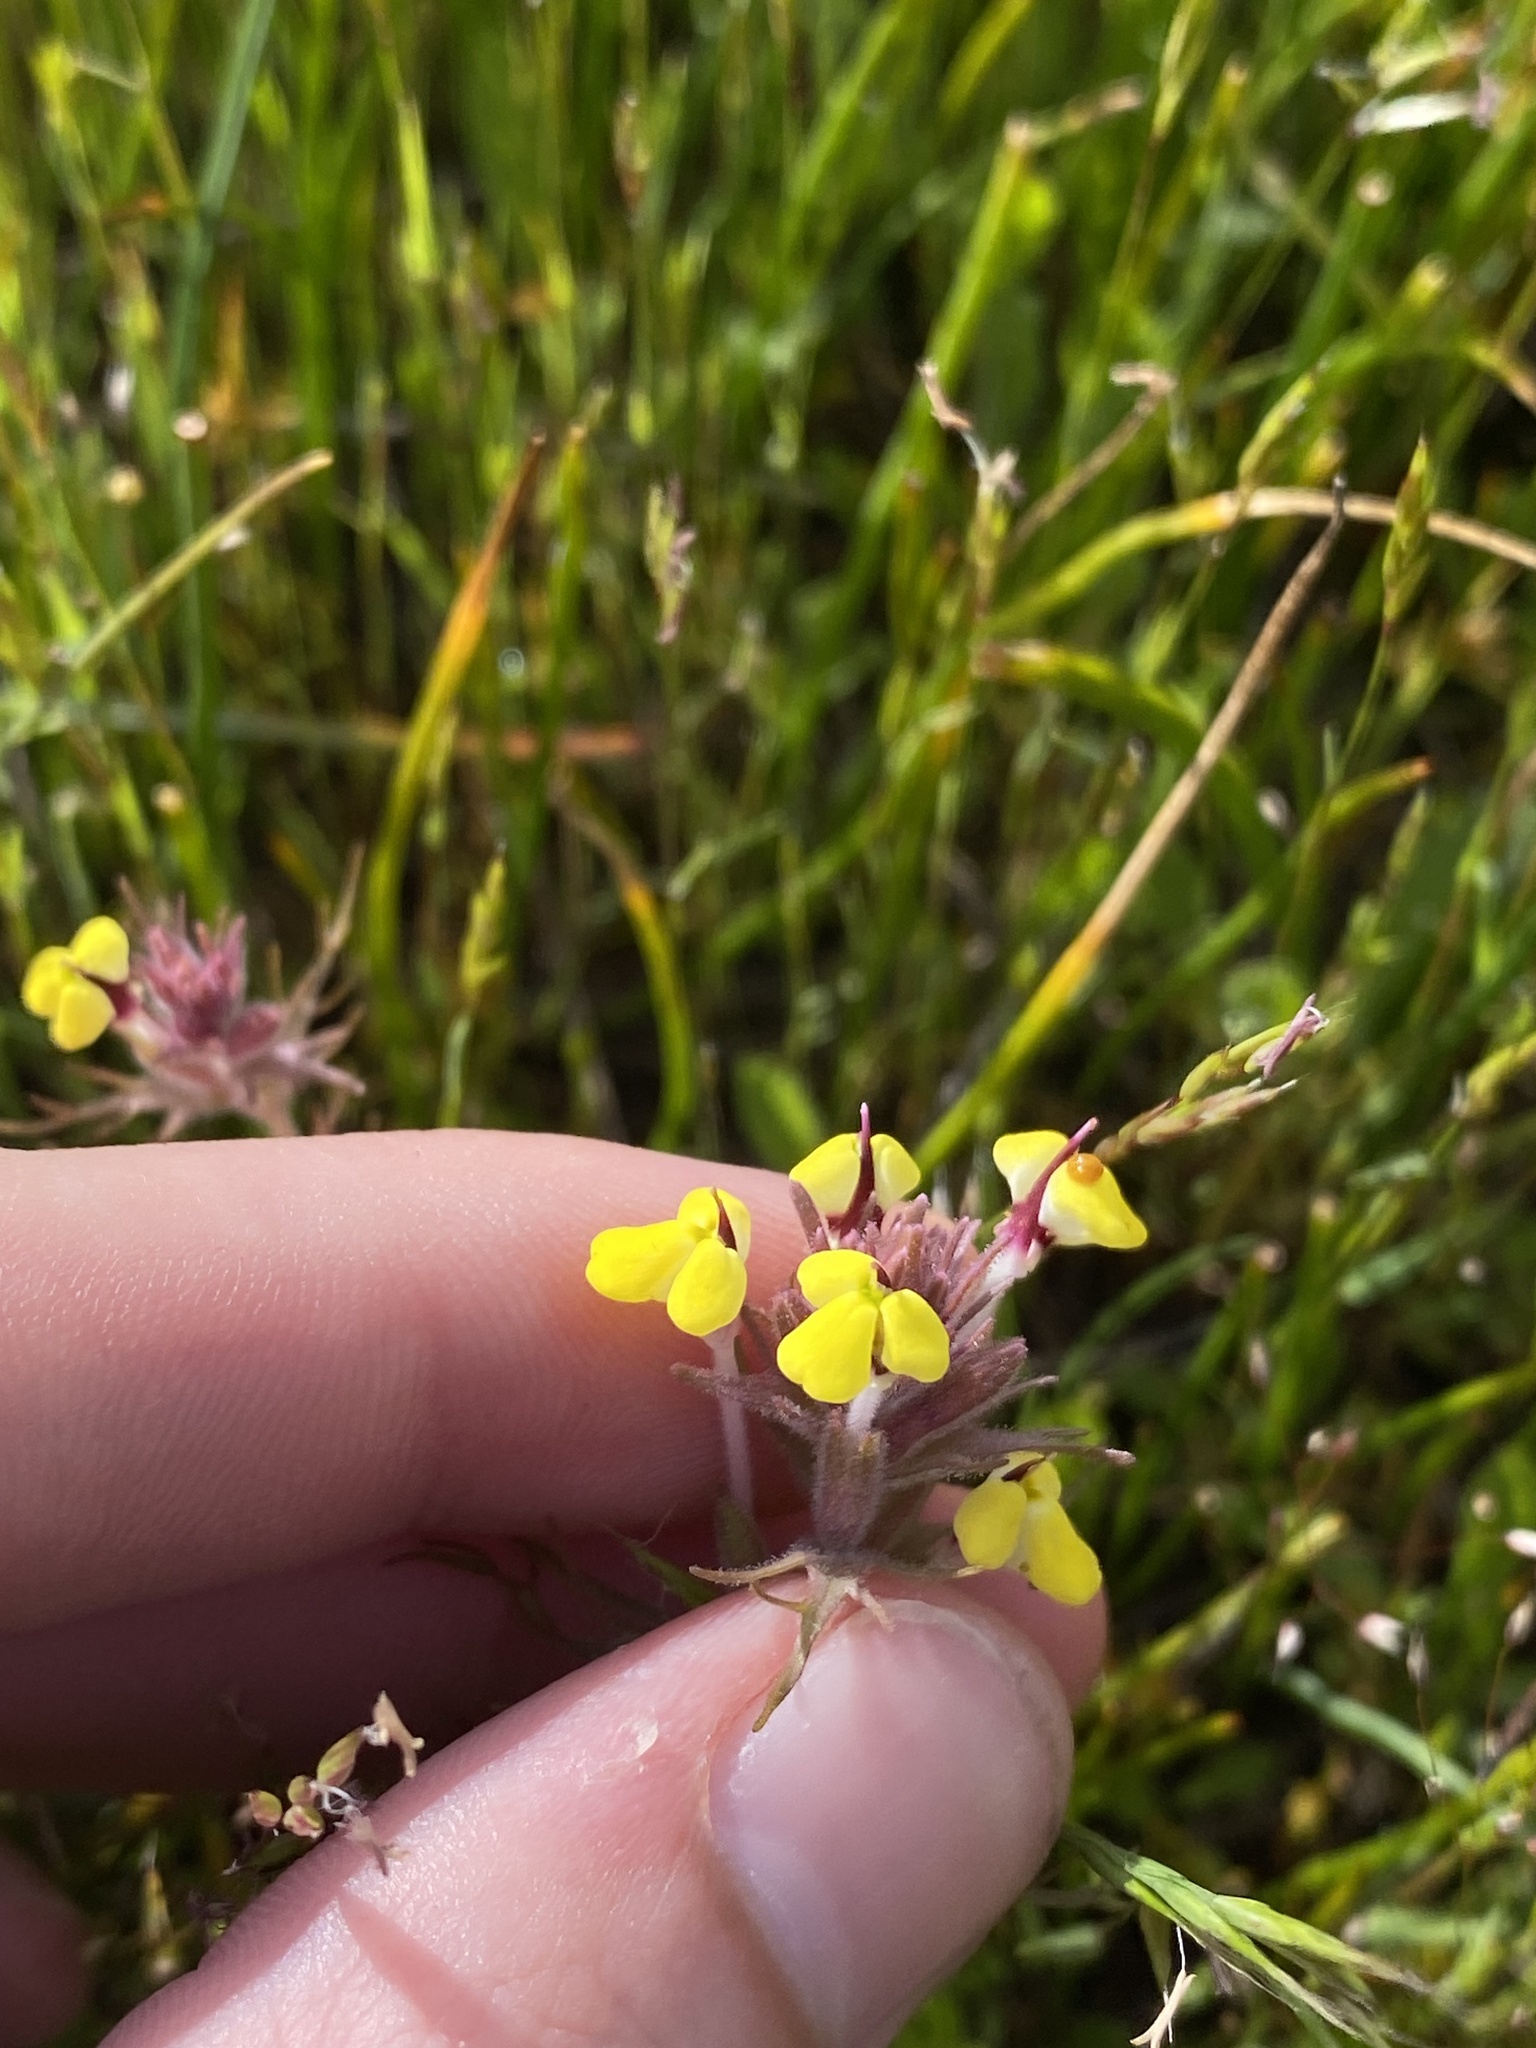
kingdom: Plantae
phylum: Tracheophyta
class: Magnoliopsida
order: Lamiales
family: Orobanchaceae
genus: Triphysaria
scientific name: Triphysaria eriantha
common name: Johnny-tuck
